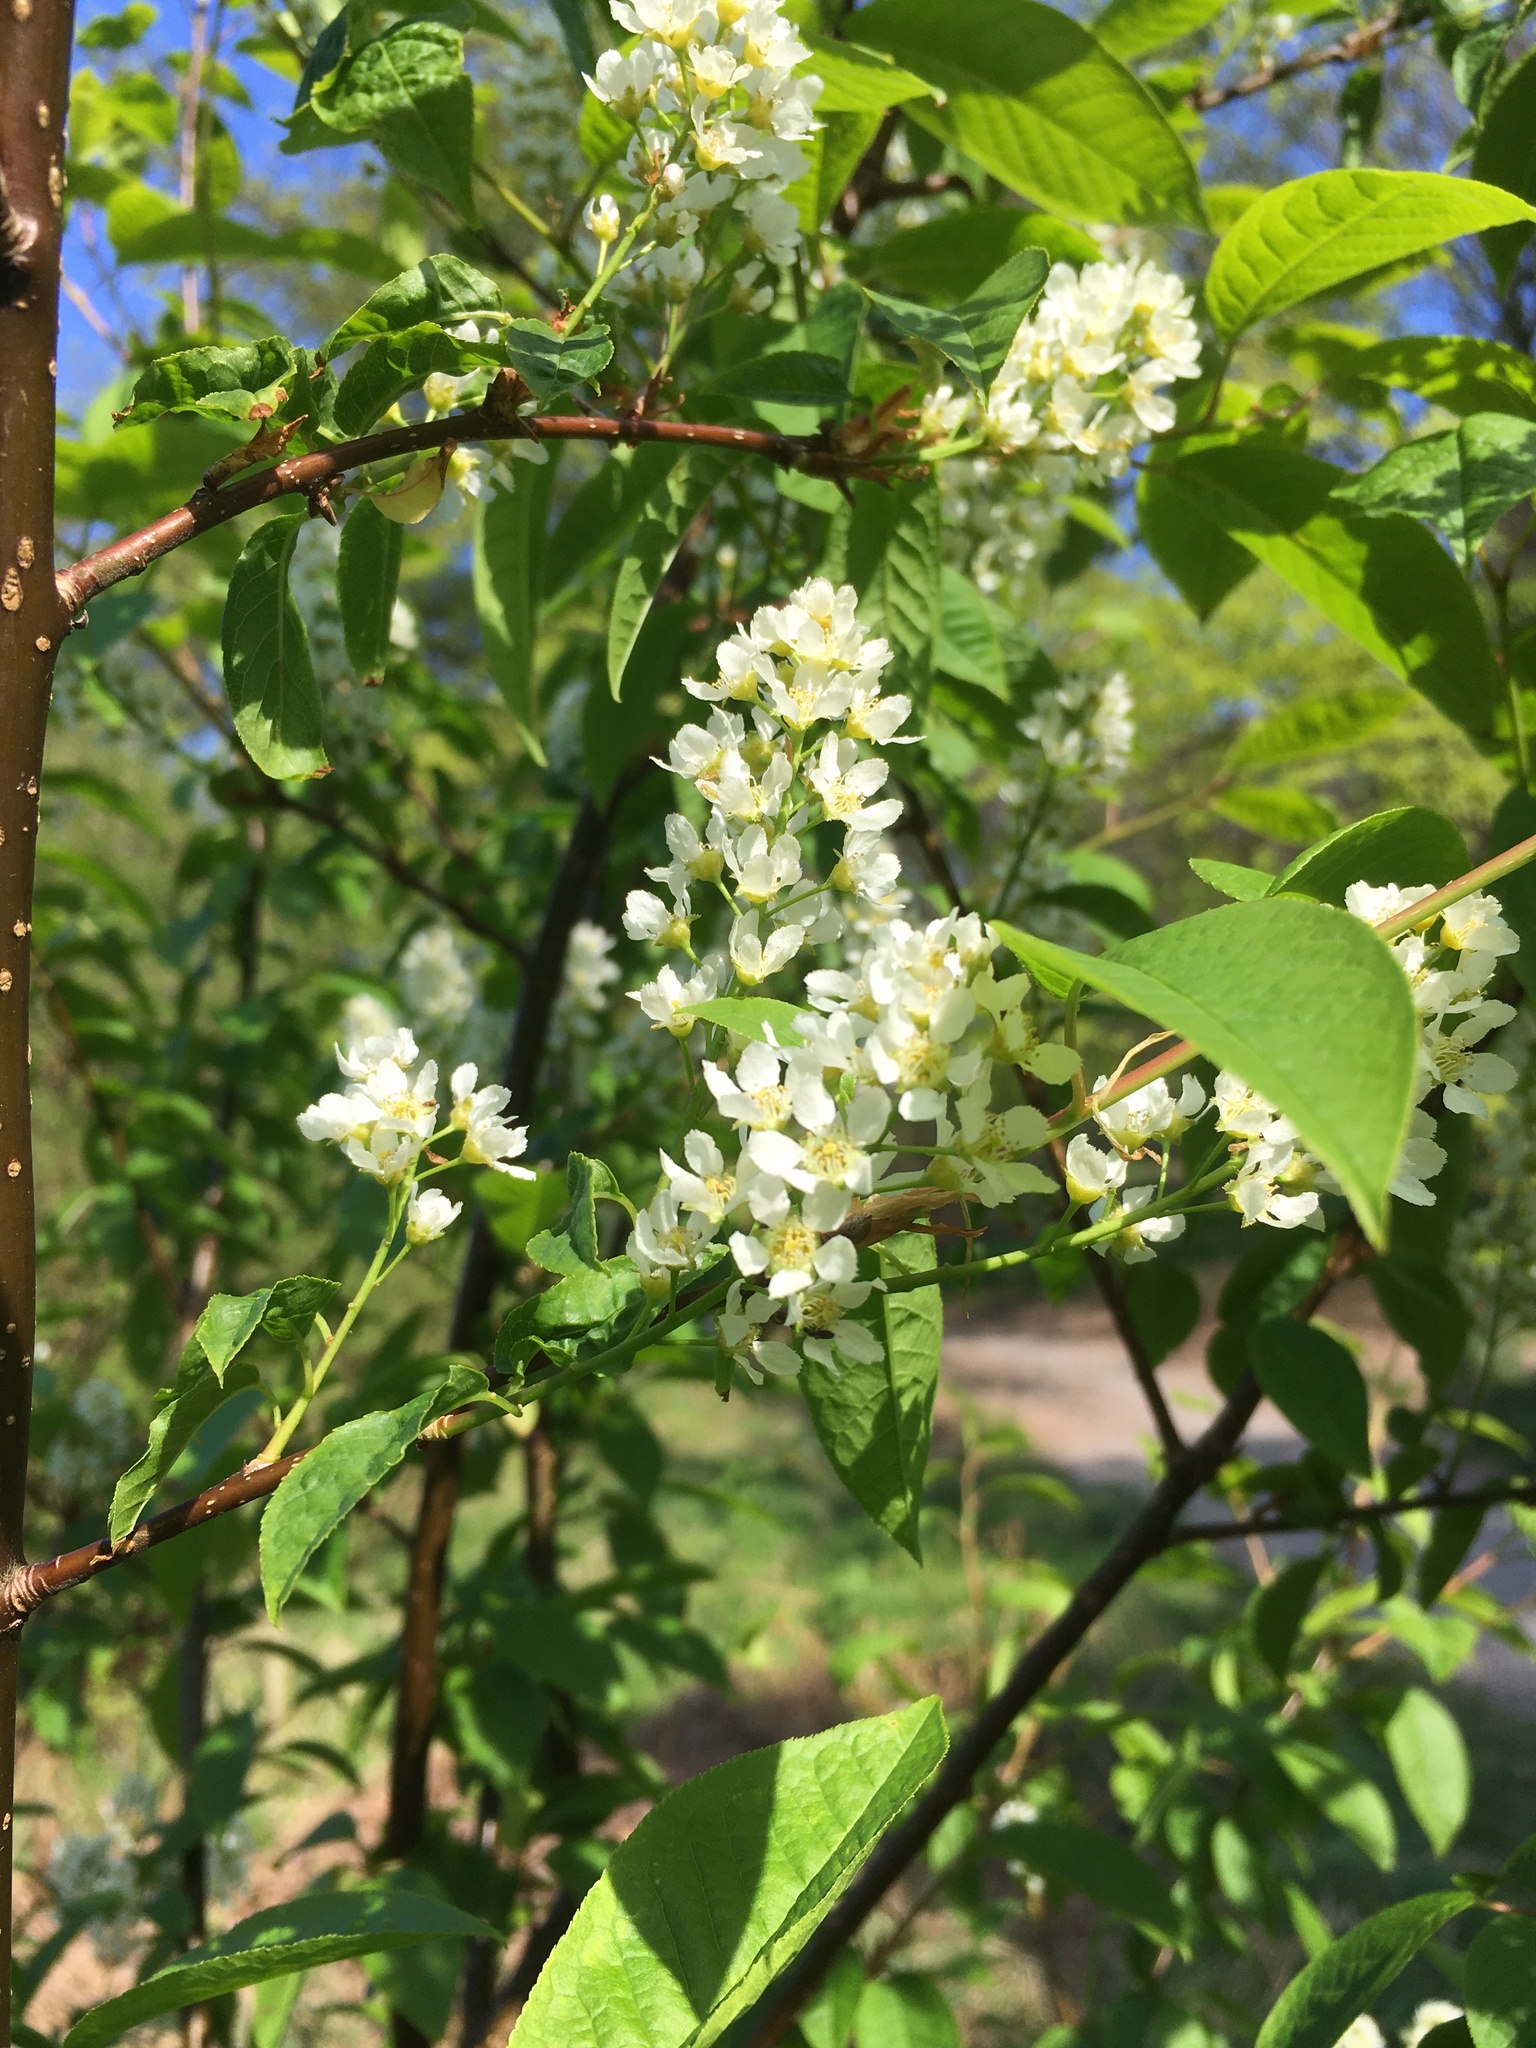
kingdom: Plantae
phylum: Tracheophyta
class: Magnoliopsida
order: Rosales
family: Rosaceae
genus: Prunus
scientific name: Prunus padus
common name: Bird cherry
